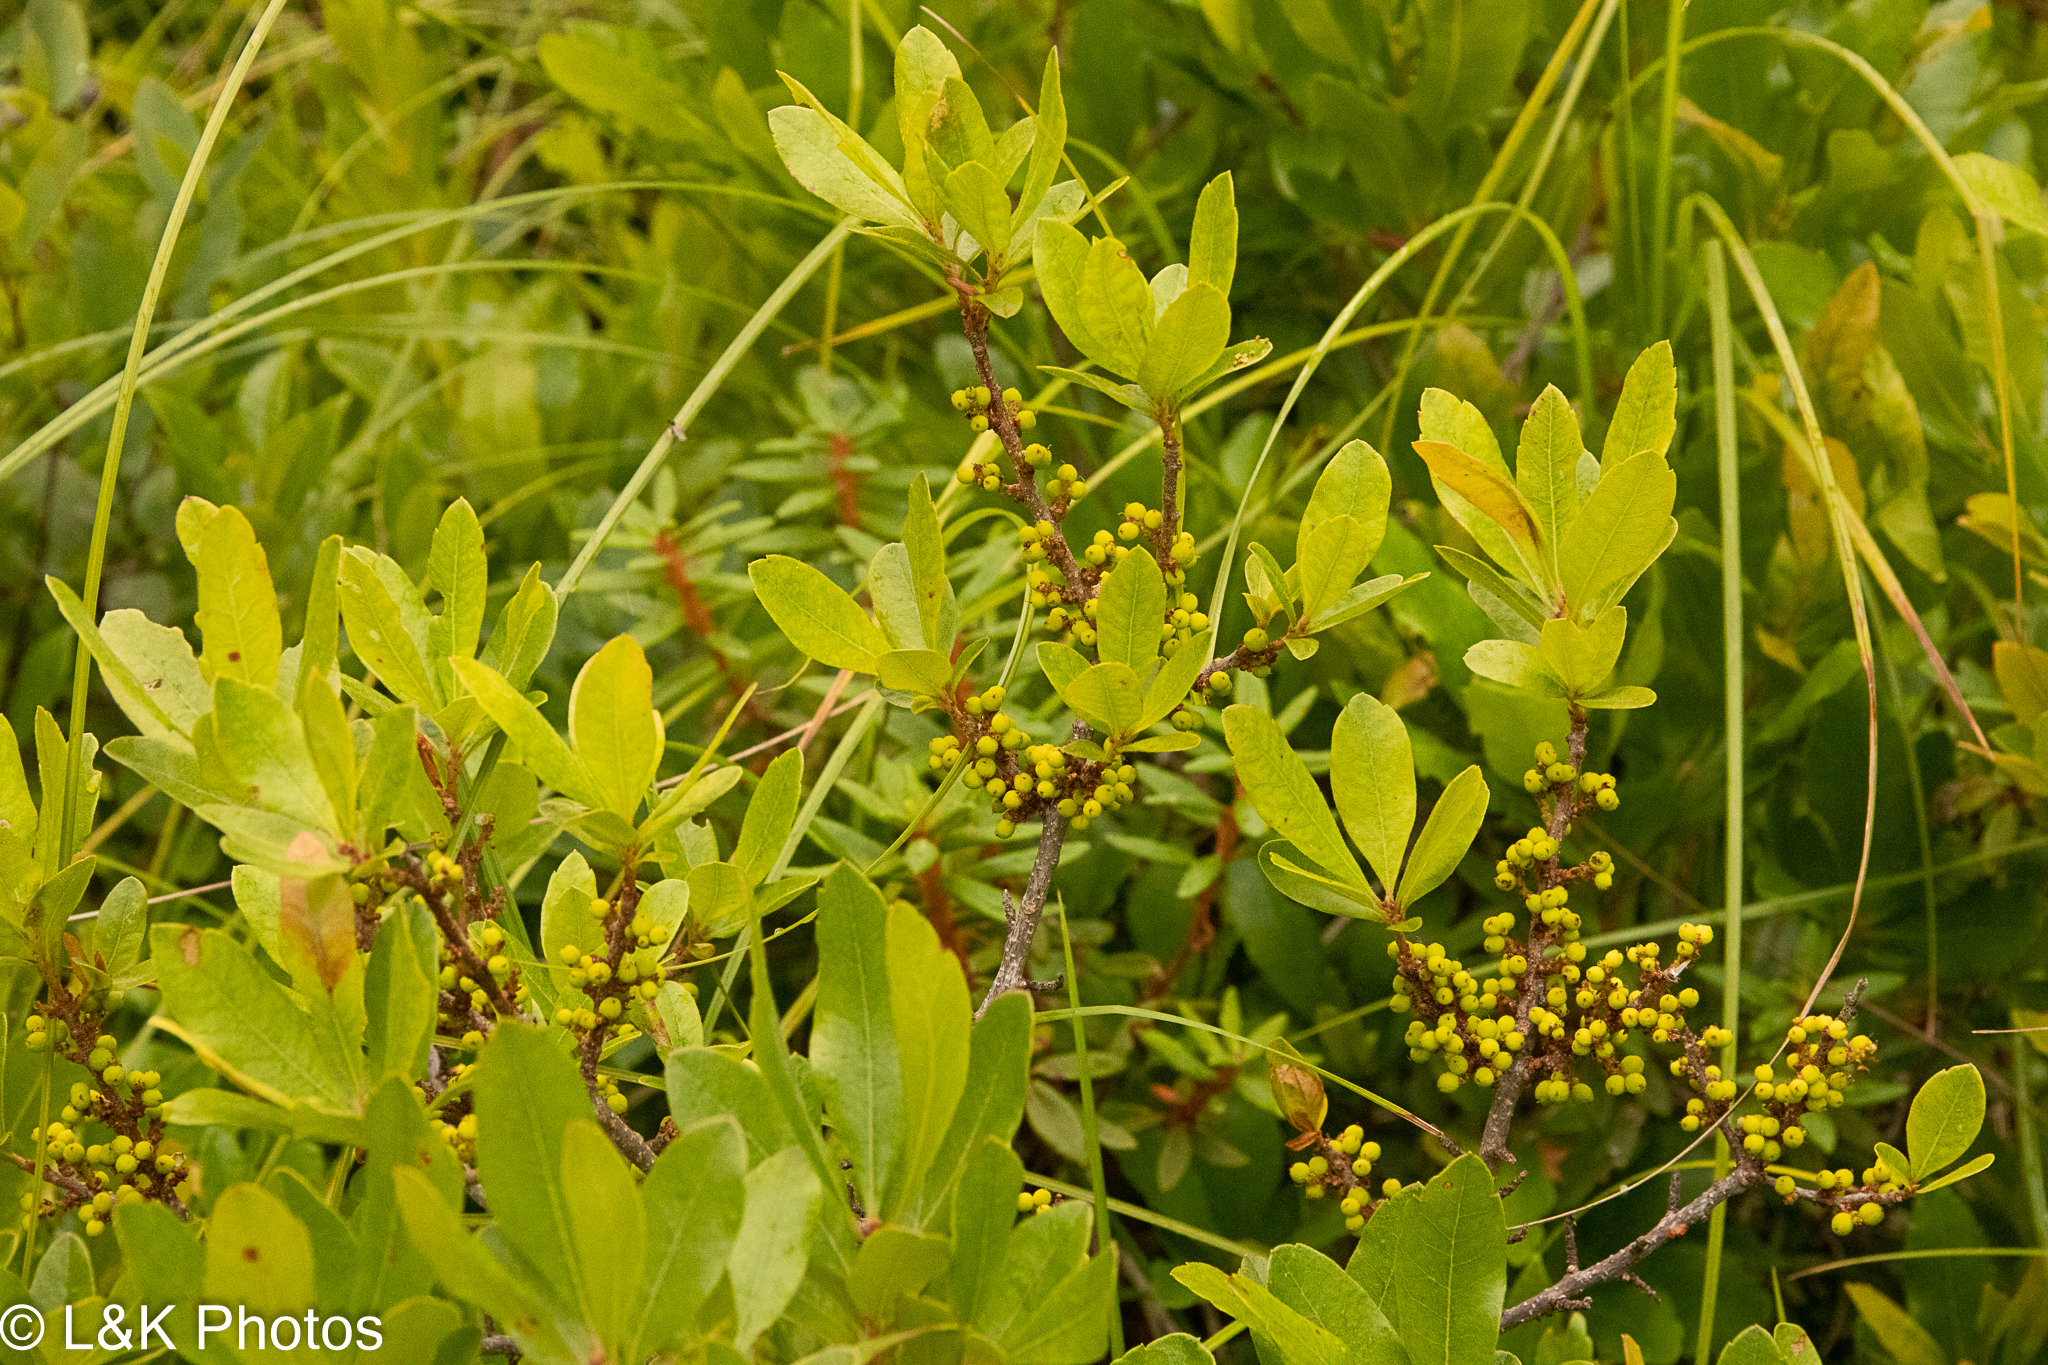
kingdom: Plantae
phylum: Tracheophyta
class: Magnoliopsida
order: Fagales
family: Myricaceae
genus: Morella
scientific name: Morella pensylvanica
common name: Northern bayberry
